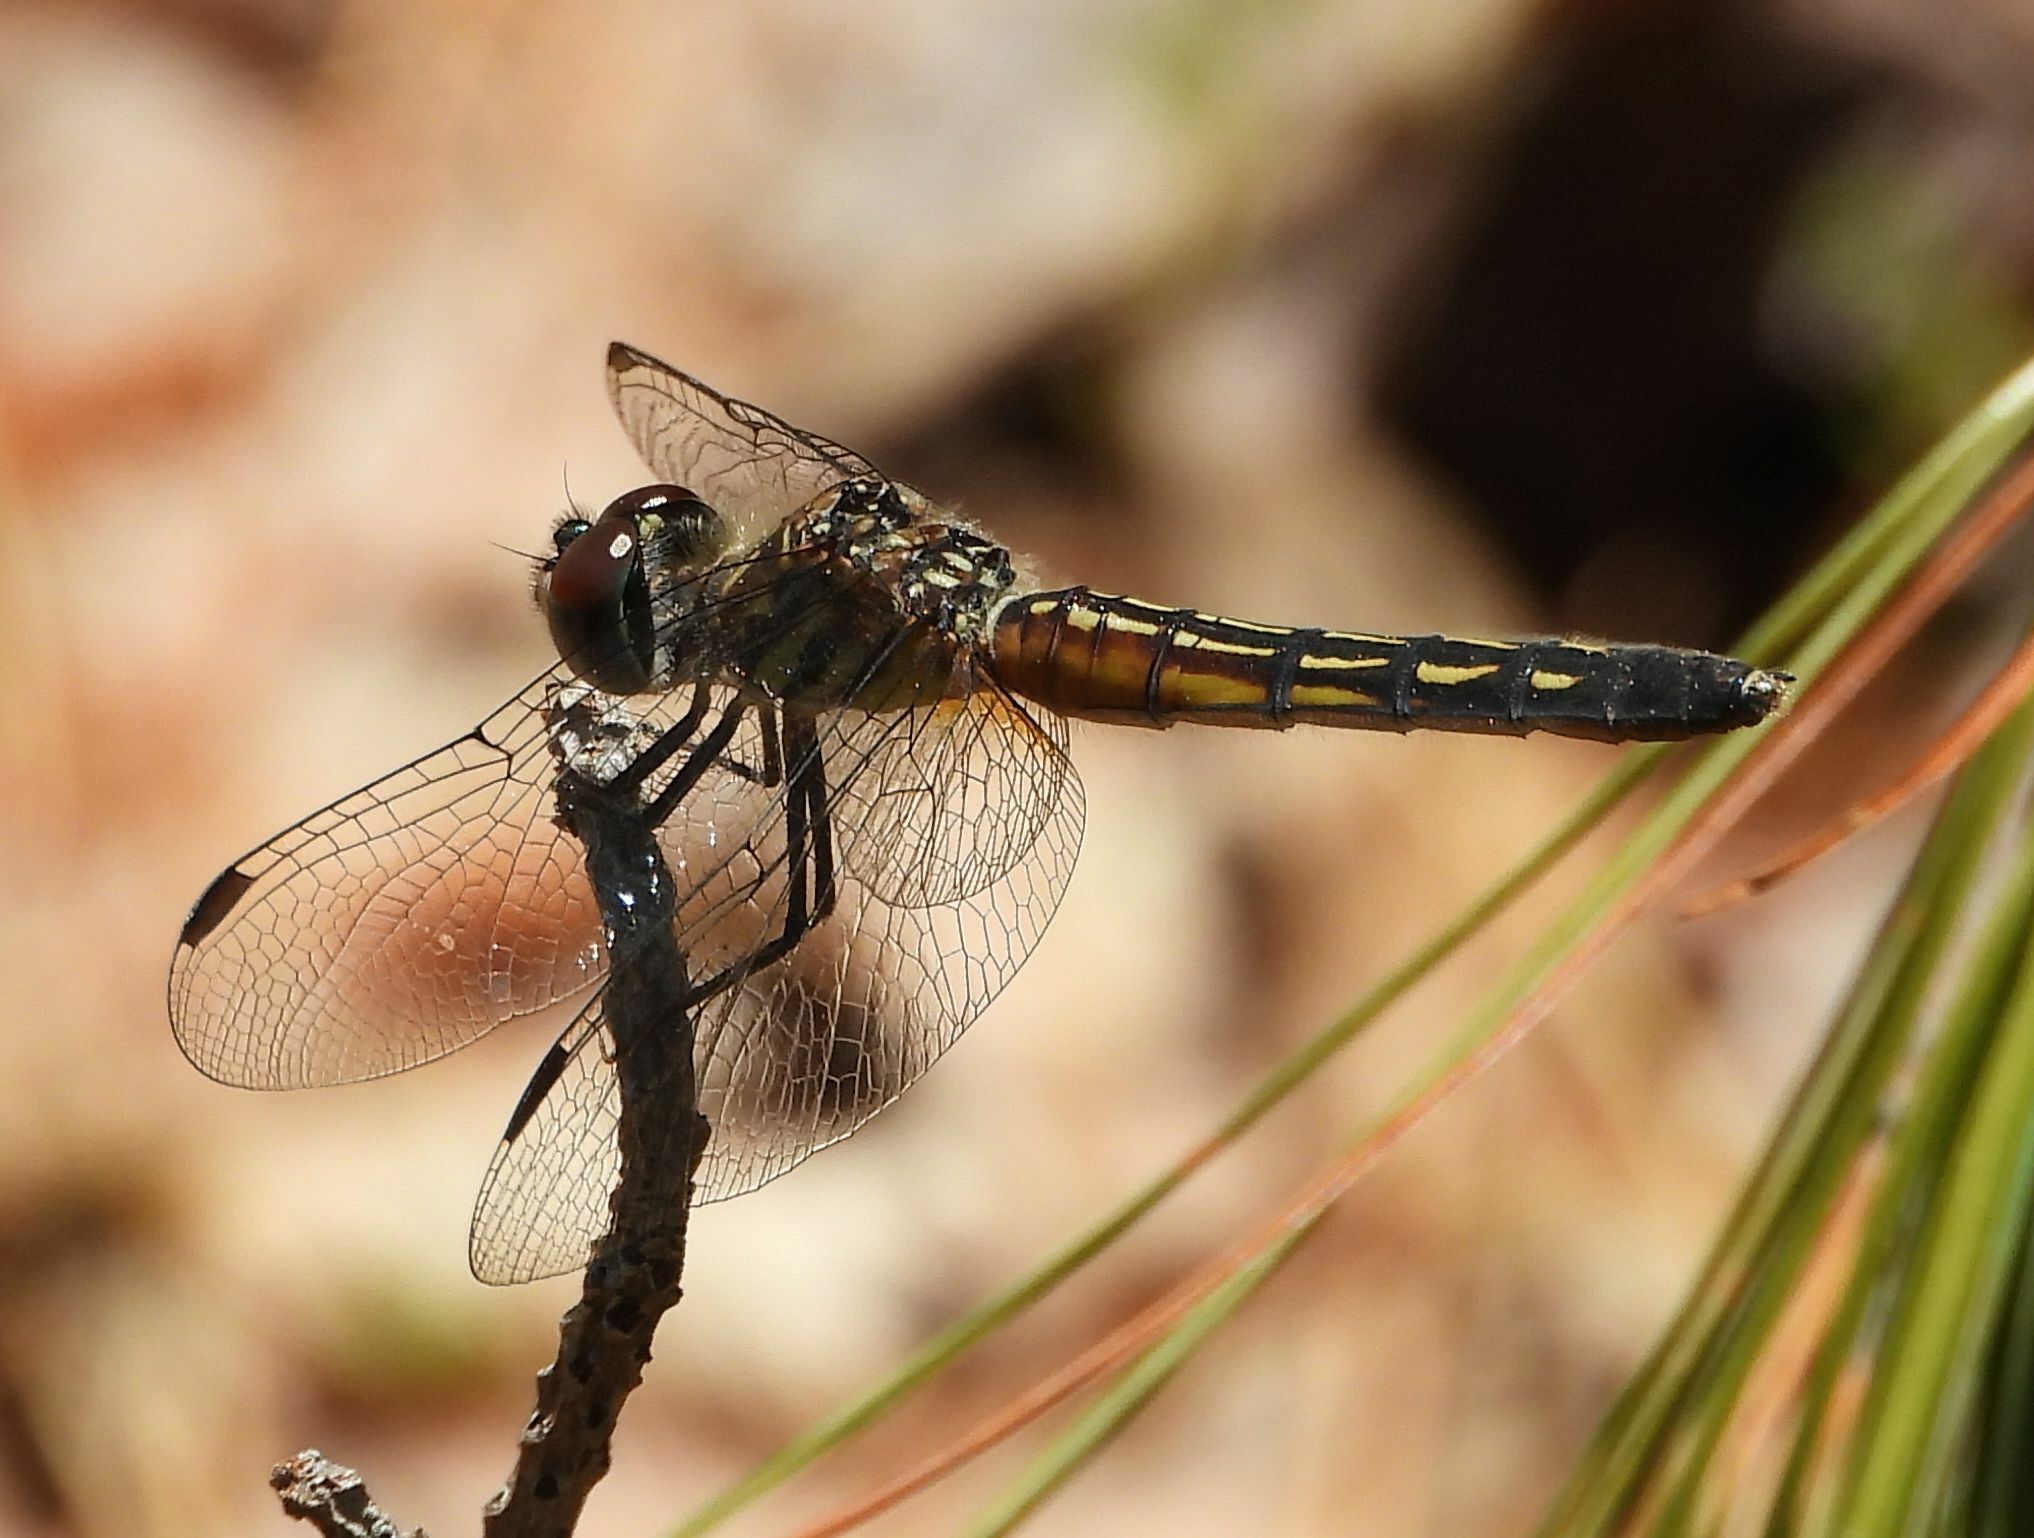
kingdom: Animalia
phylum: Arthropoda
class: Insecta
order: Odonata
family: Libellulidae
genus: Pachydiplax
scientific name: Pachydiplax longipennis
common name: Blue dasher
